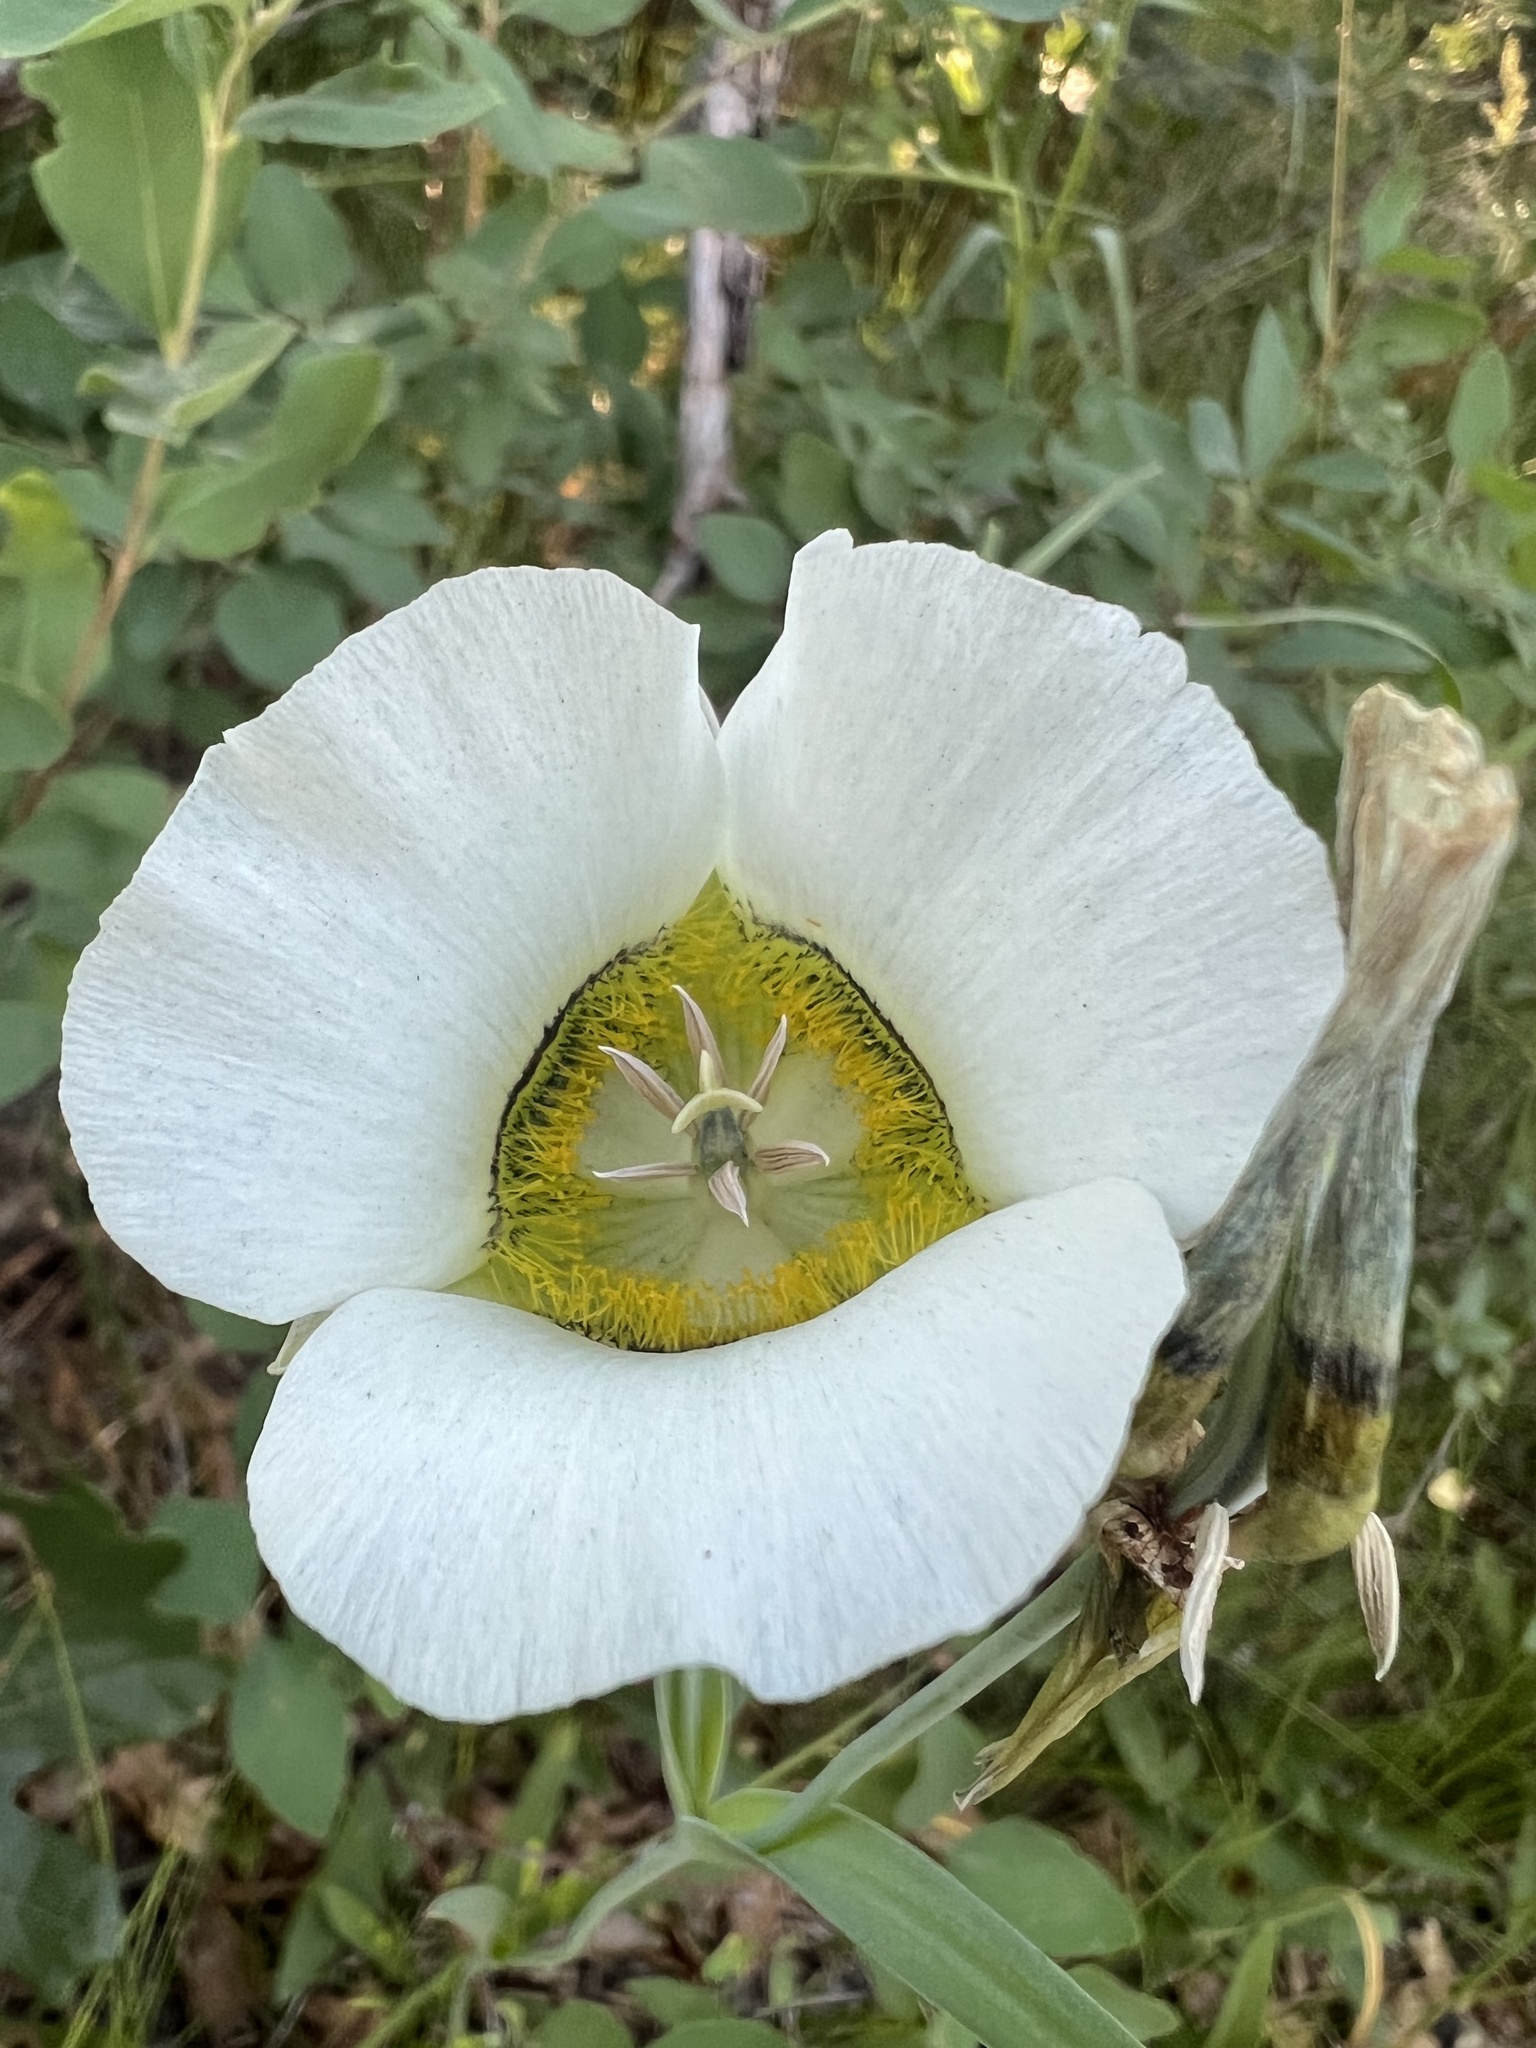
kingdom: Plantae
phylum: Tracheophyta
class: Liliopsida
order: Liliales
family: Liliaceae
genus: Calochortus
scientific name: Calochortus gunnisonii
